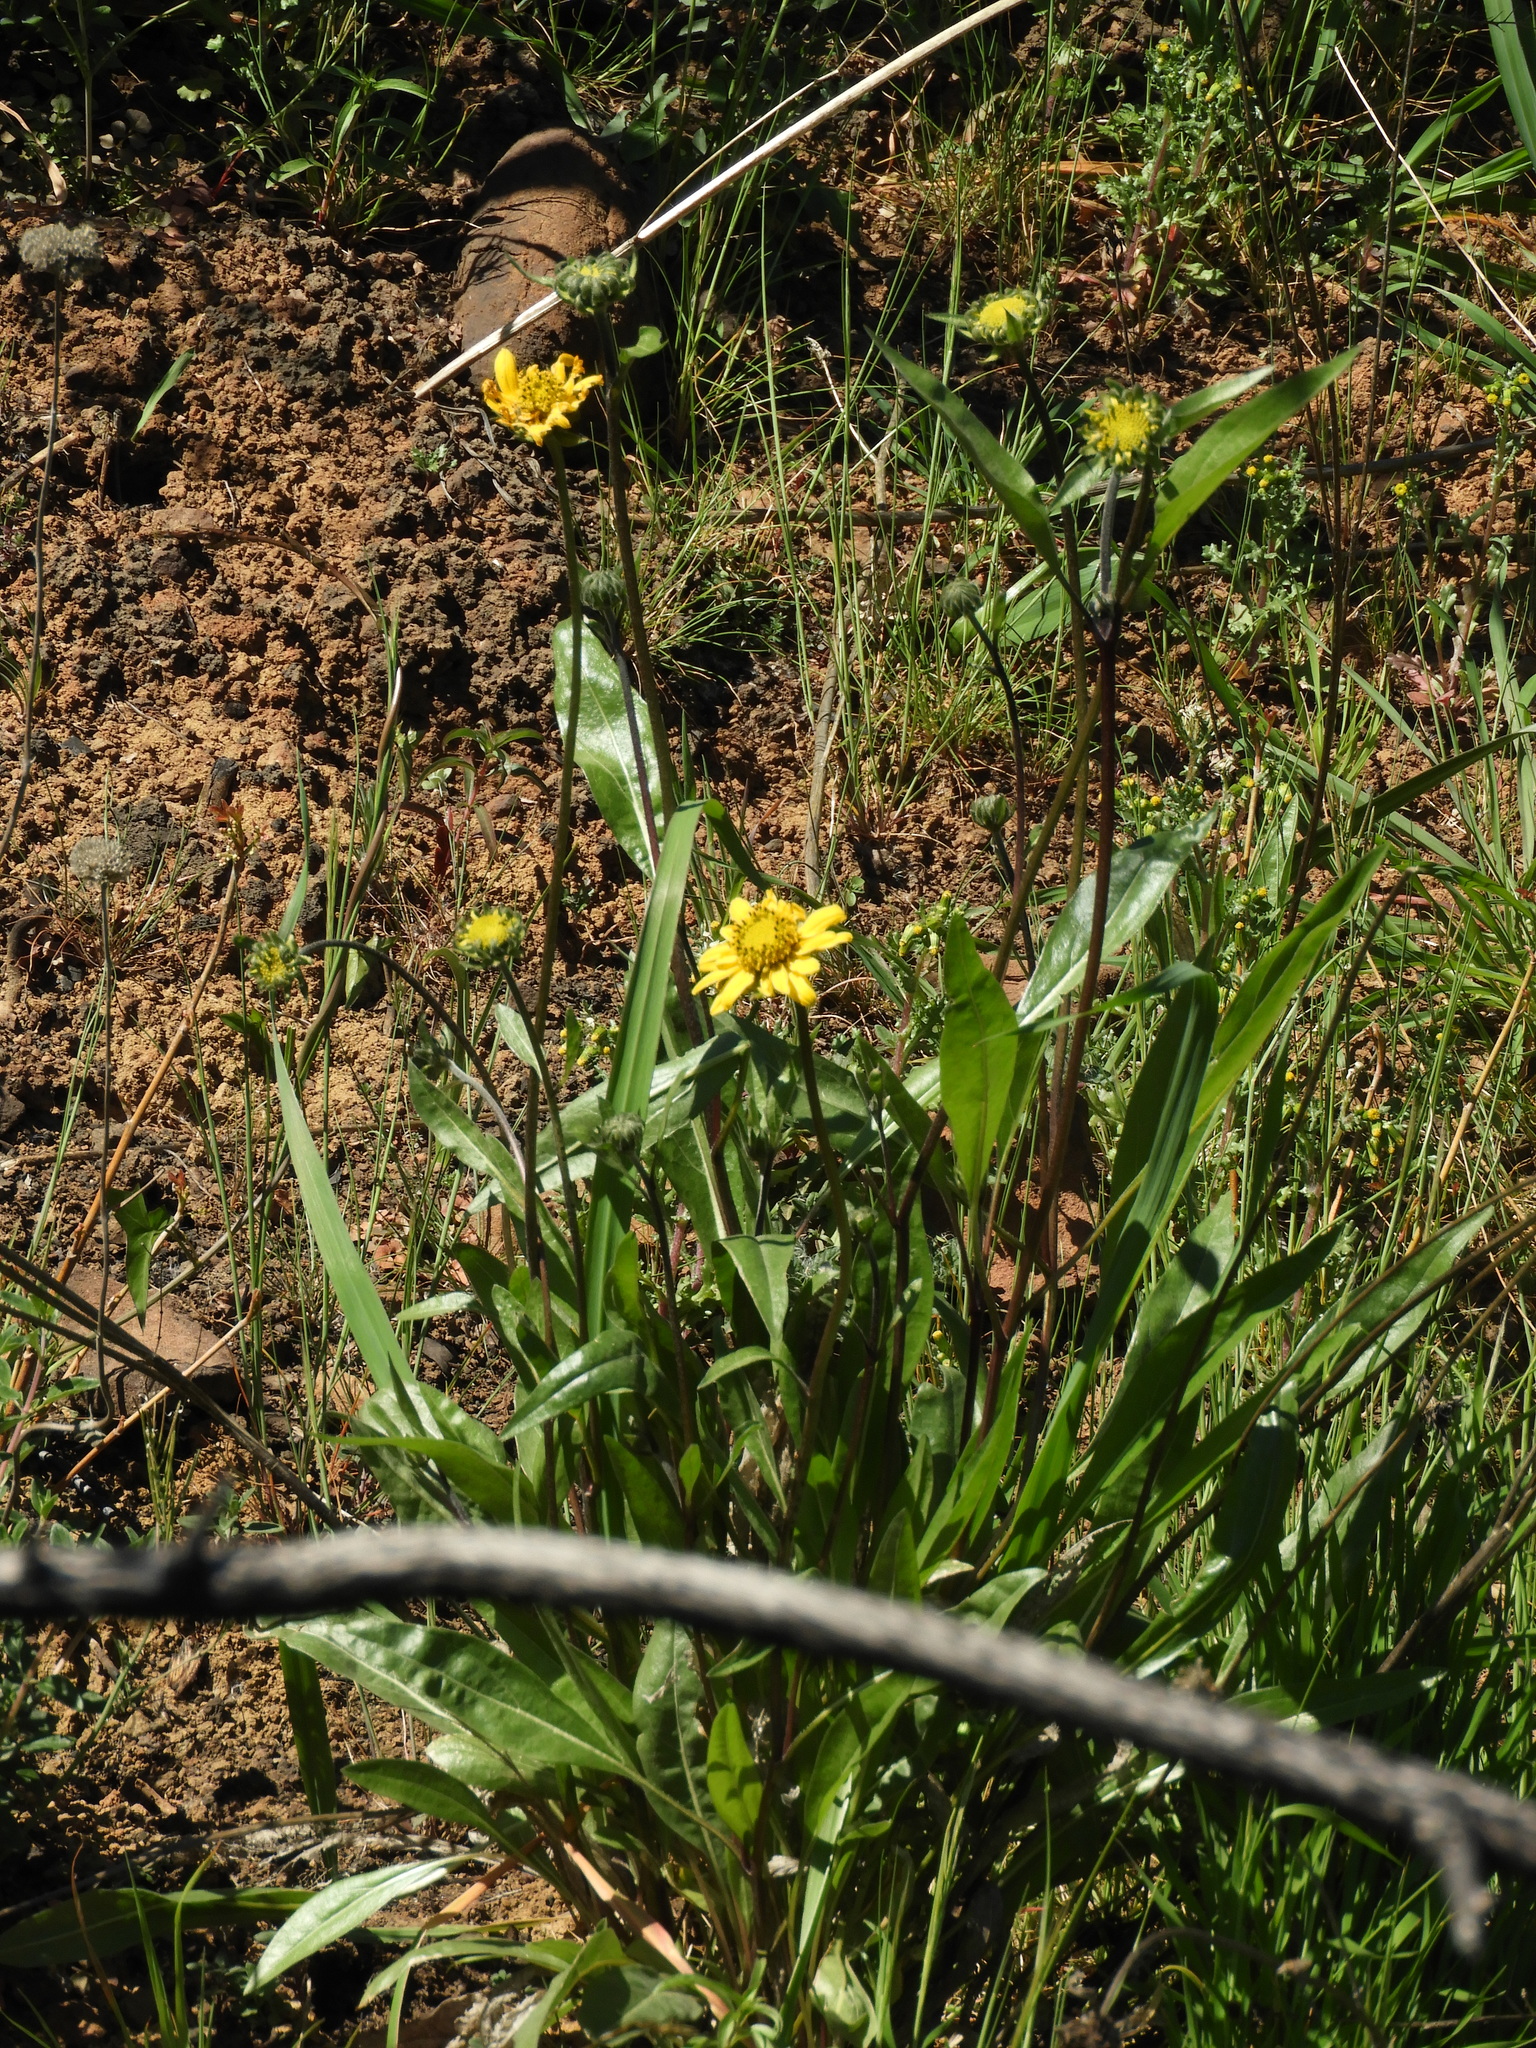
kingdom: Plantae
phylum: Tracheophyta
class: Magnoliopsida
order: Asterales
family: Asteraceae
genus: Wyethia
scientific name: Wyethia angustifolia
